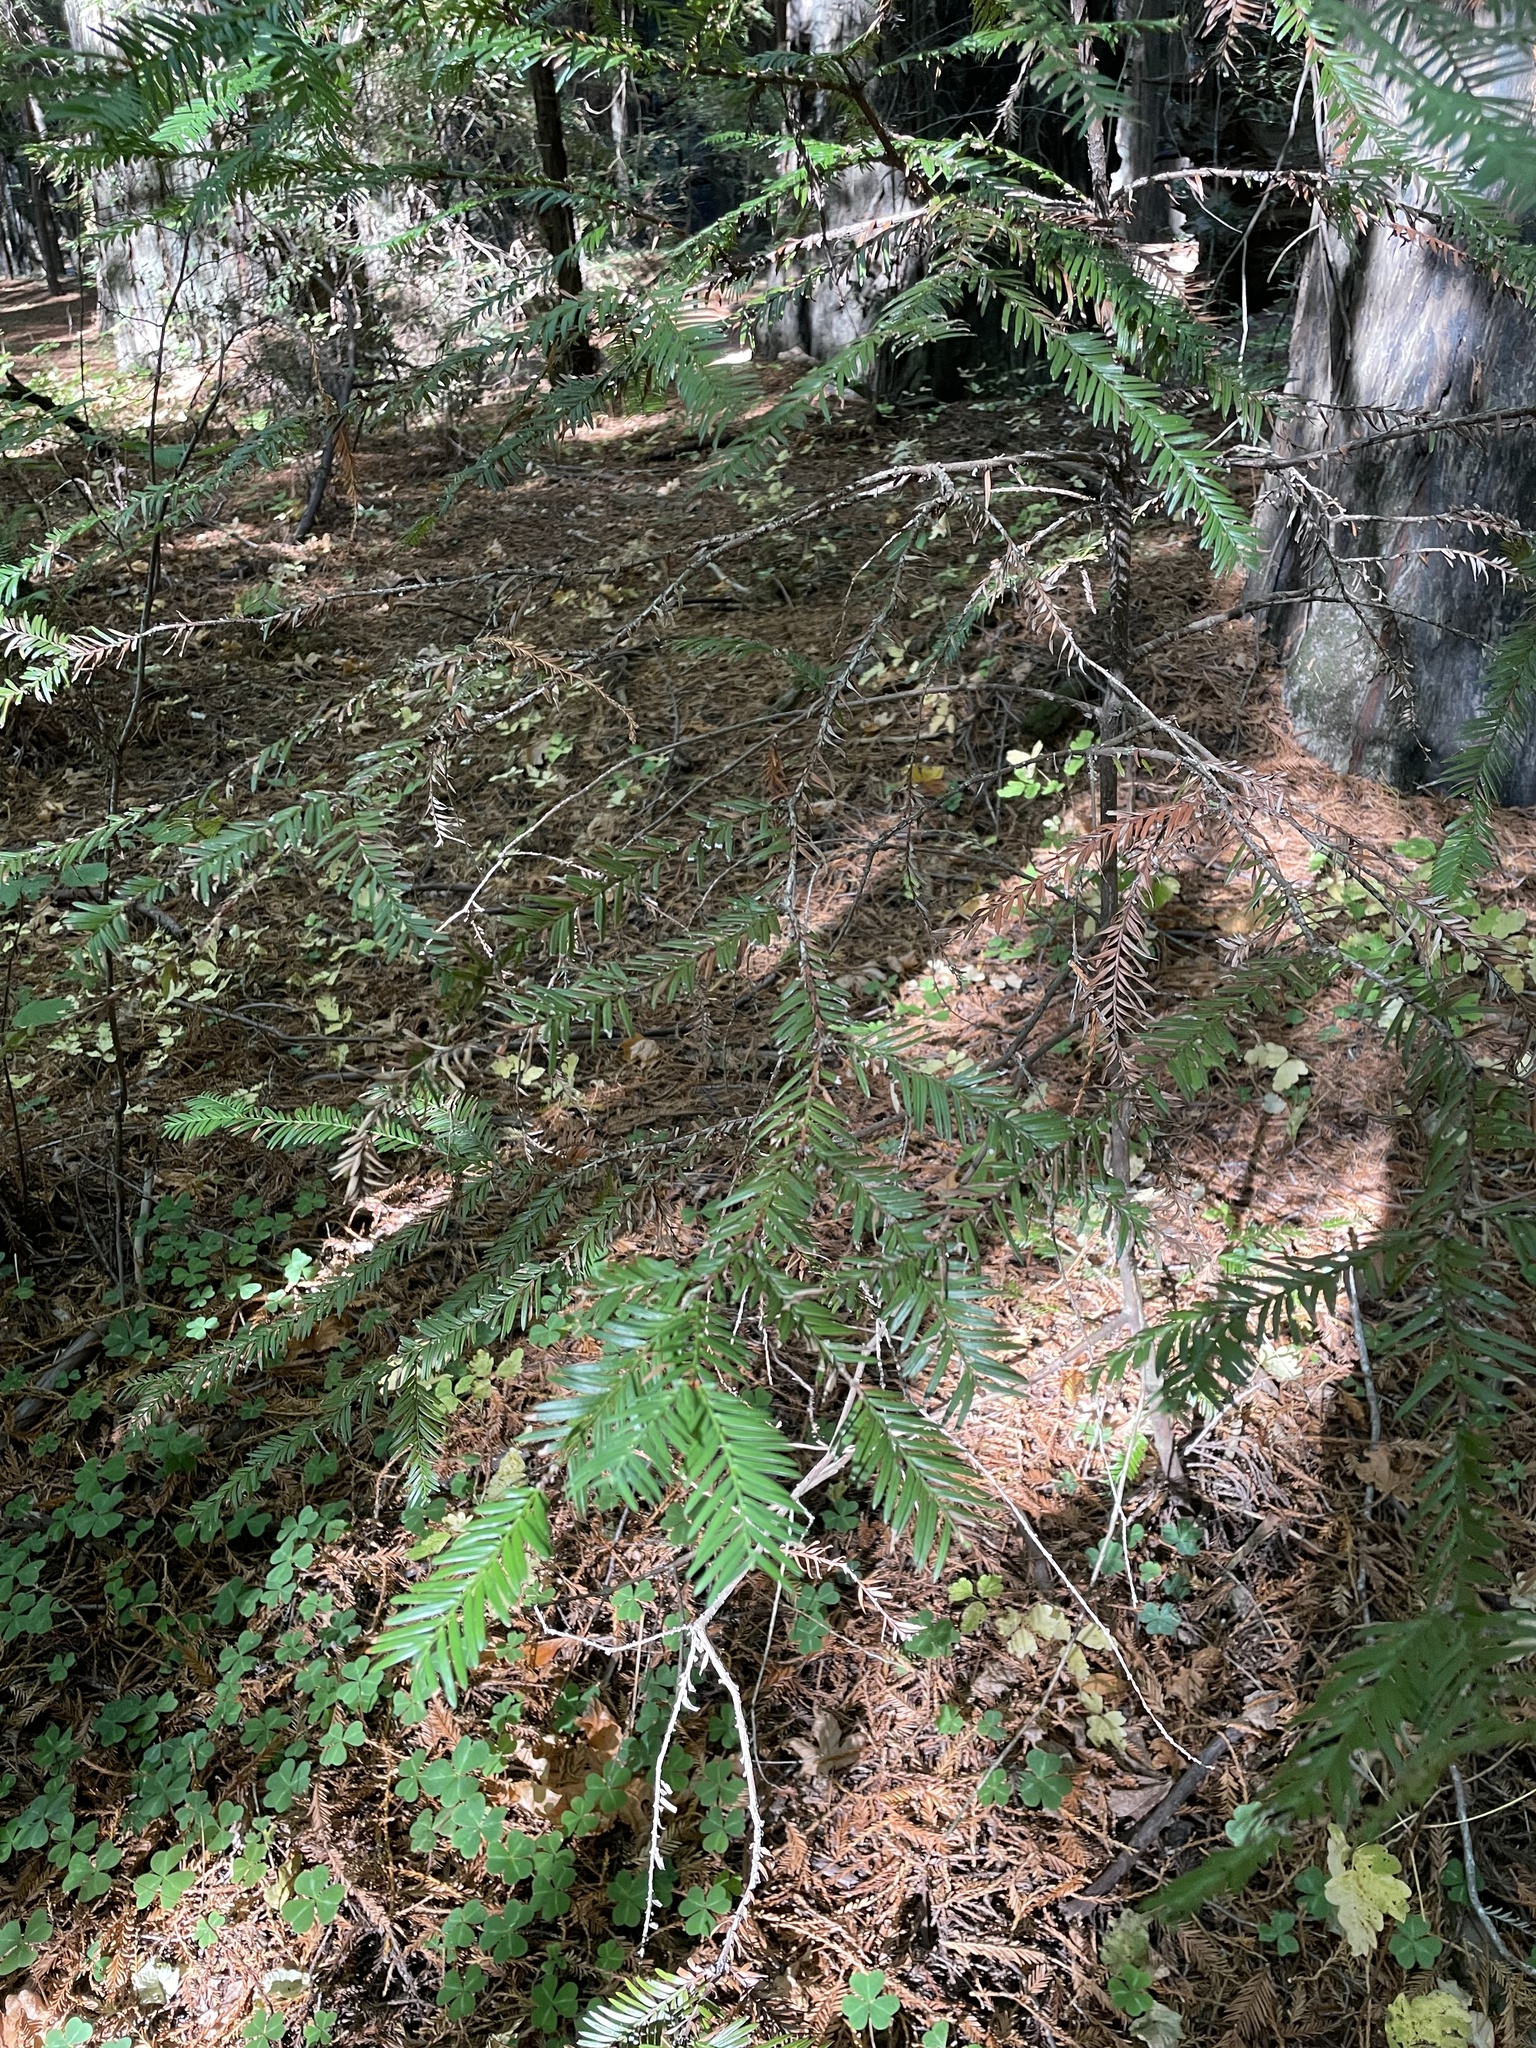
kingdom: Plantae
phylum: Tracheophyta
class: Pinopsida
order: Pinales
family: Cupressaceae
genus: Sequoia
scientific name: Sequoia sempervirens
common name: Coast redwood
